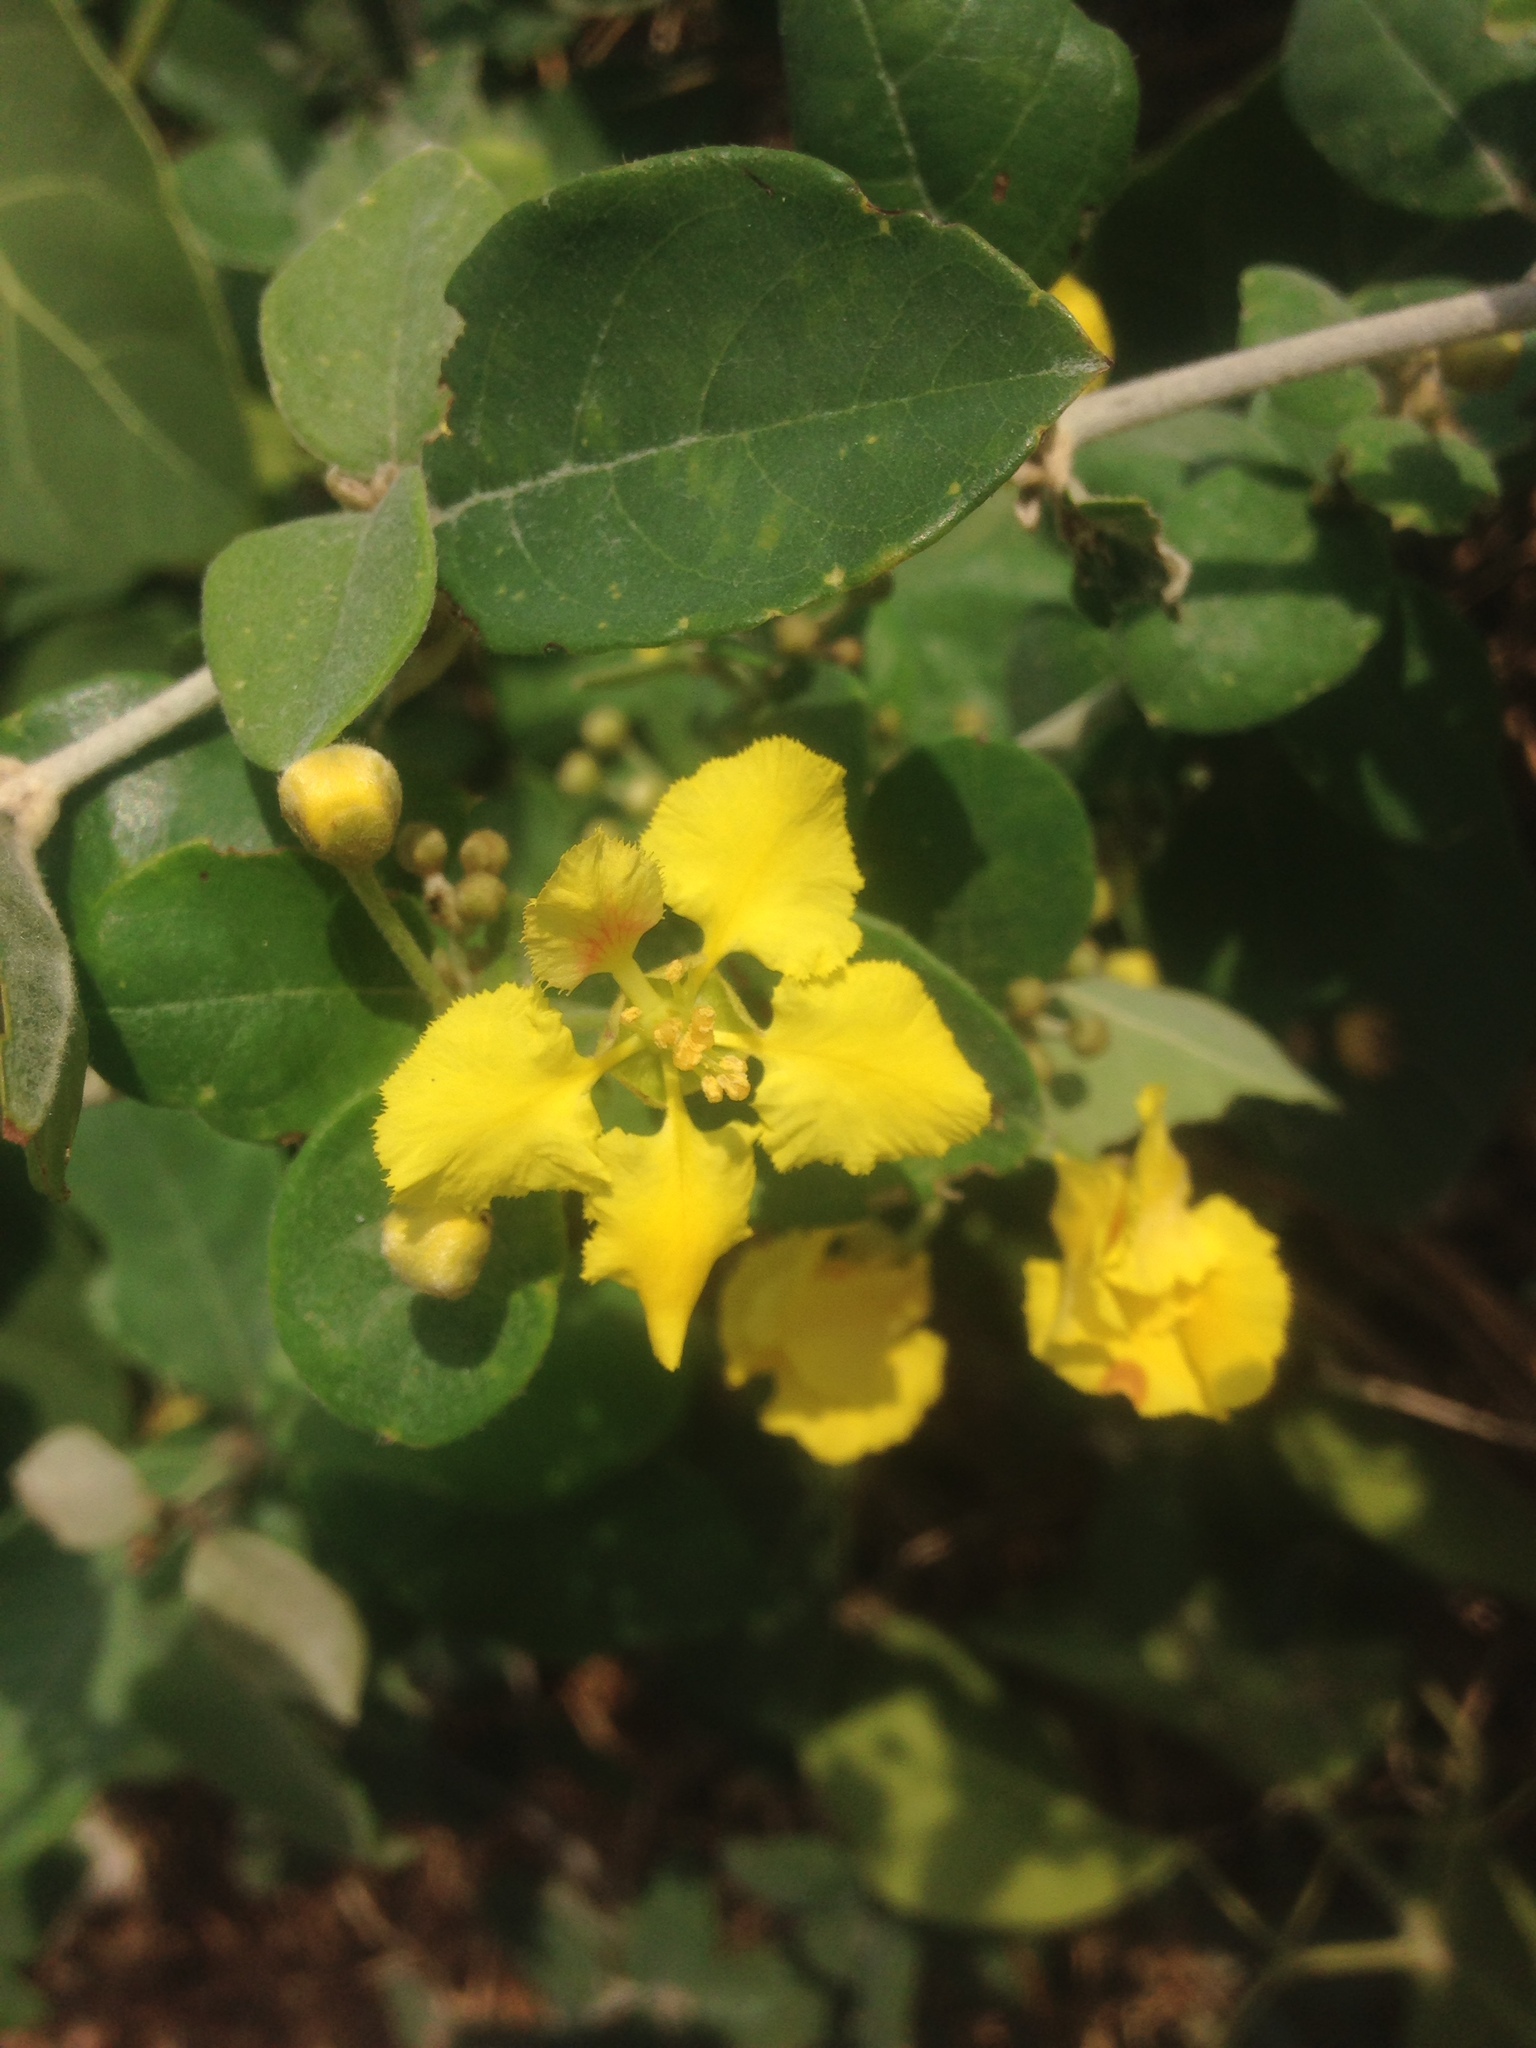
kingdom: Plantae
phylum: Tracheophyta
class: Magnoliopsida
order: Malpighiales
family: Malpighiaceae
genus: Callaeum
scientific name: Callaeum macropterum
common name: Mexican butterfly-vine
